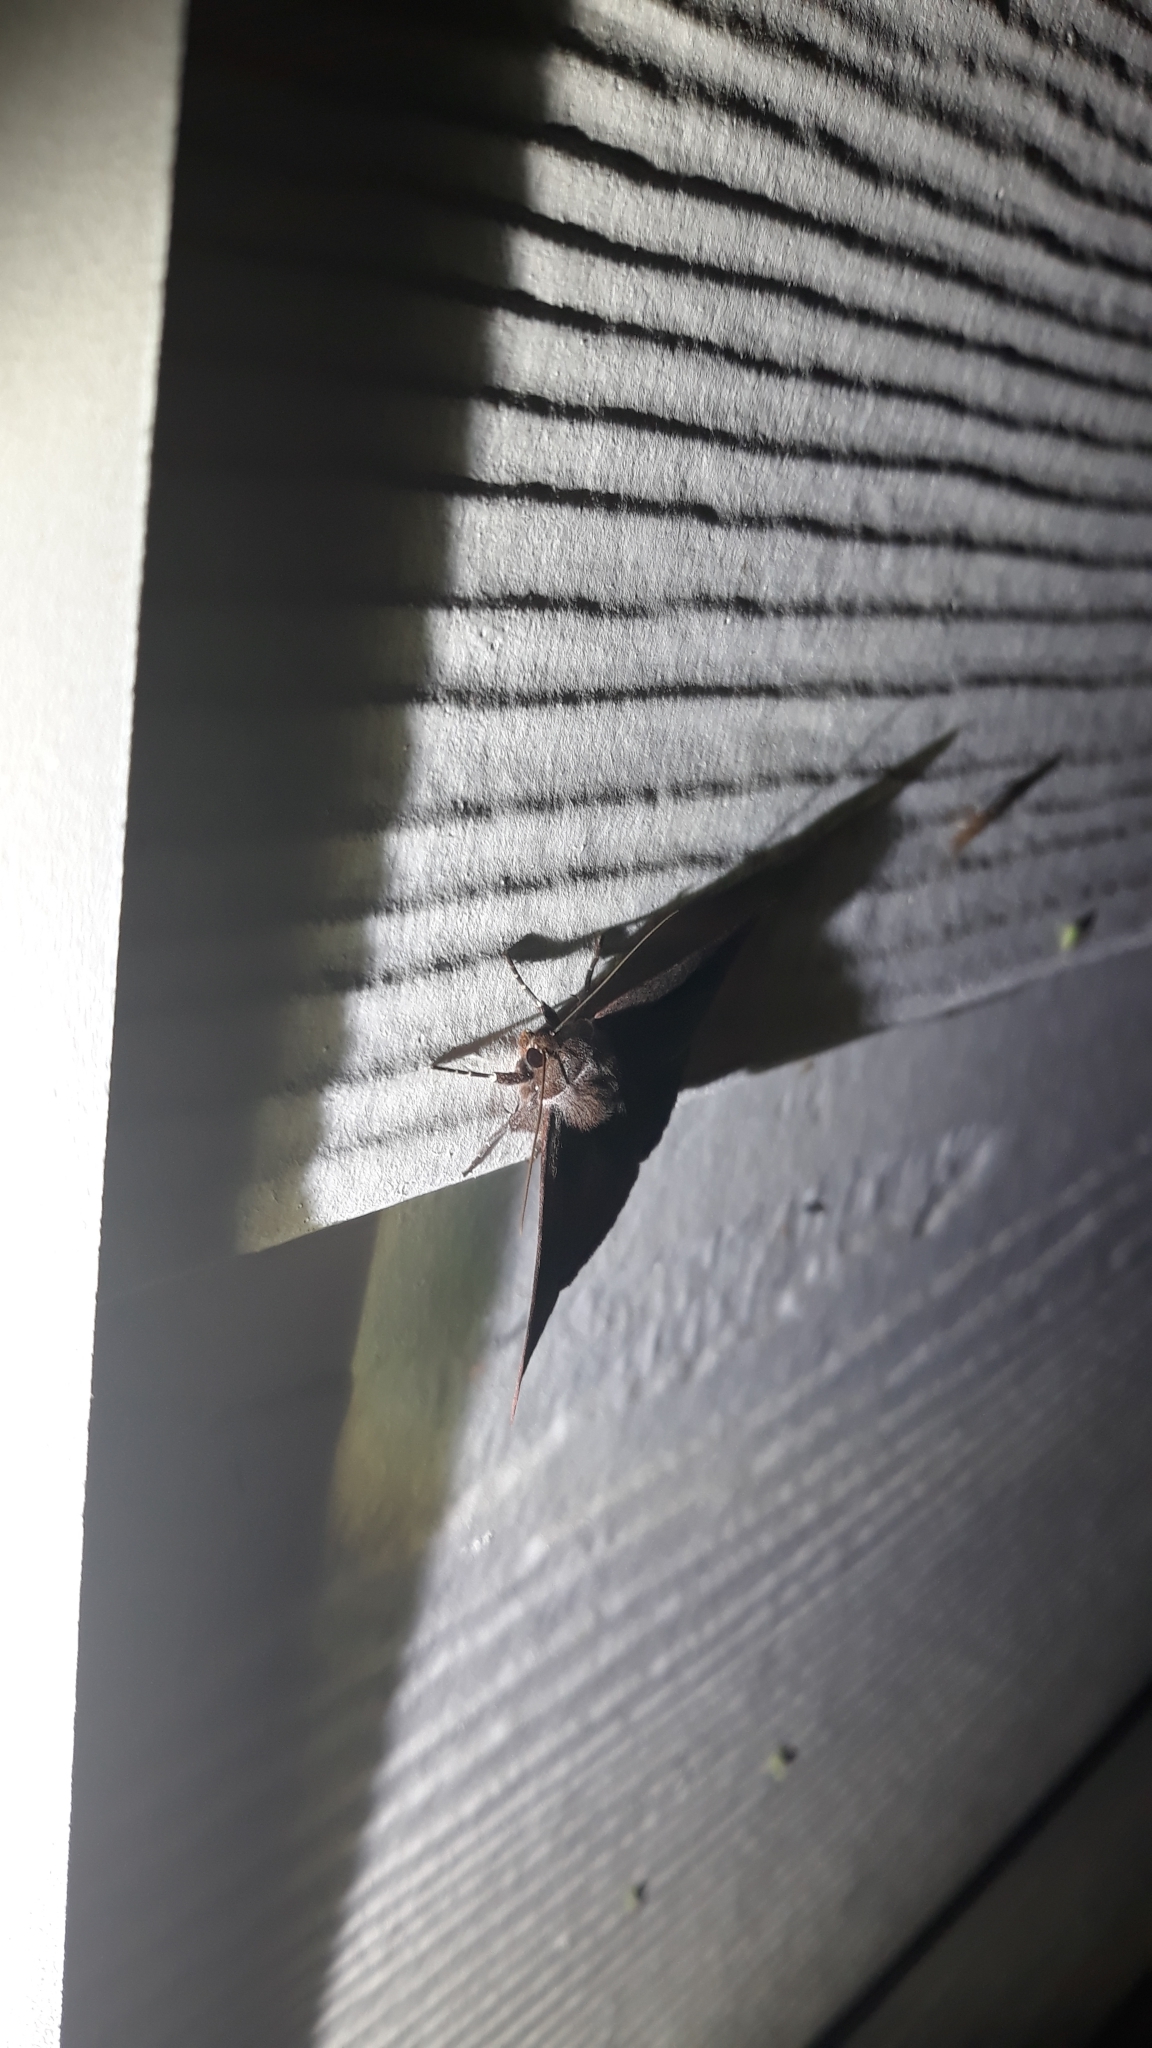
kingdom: Animalia
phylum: Arthropoda
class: Insecta
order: Lepidoptera
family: Erebidae
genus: Panopoda
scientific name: Panopoda carneicosta
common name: Brown panopoda moth
